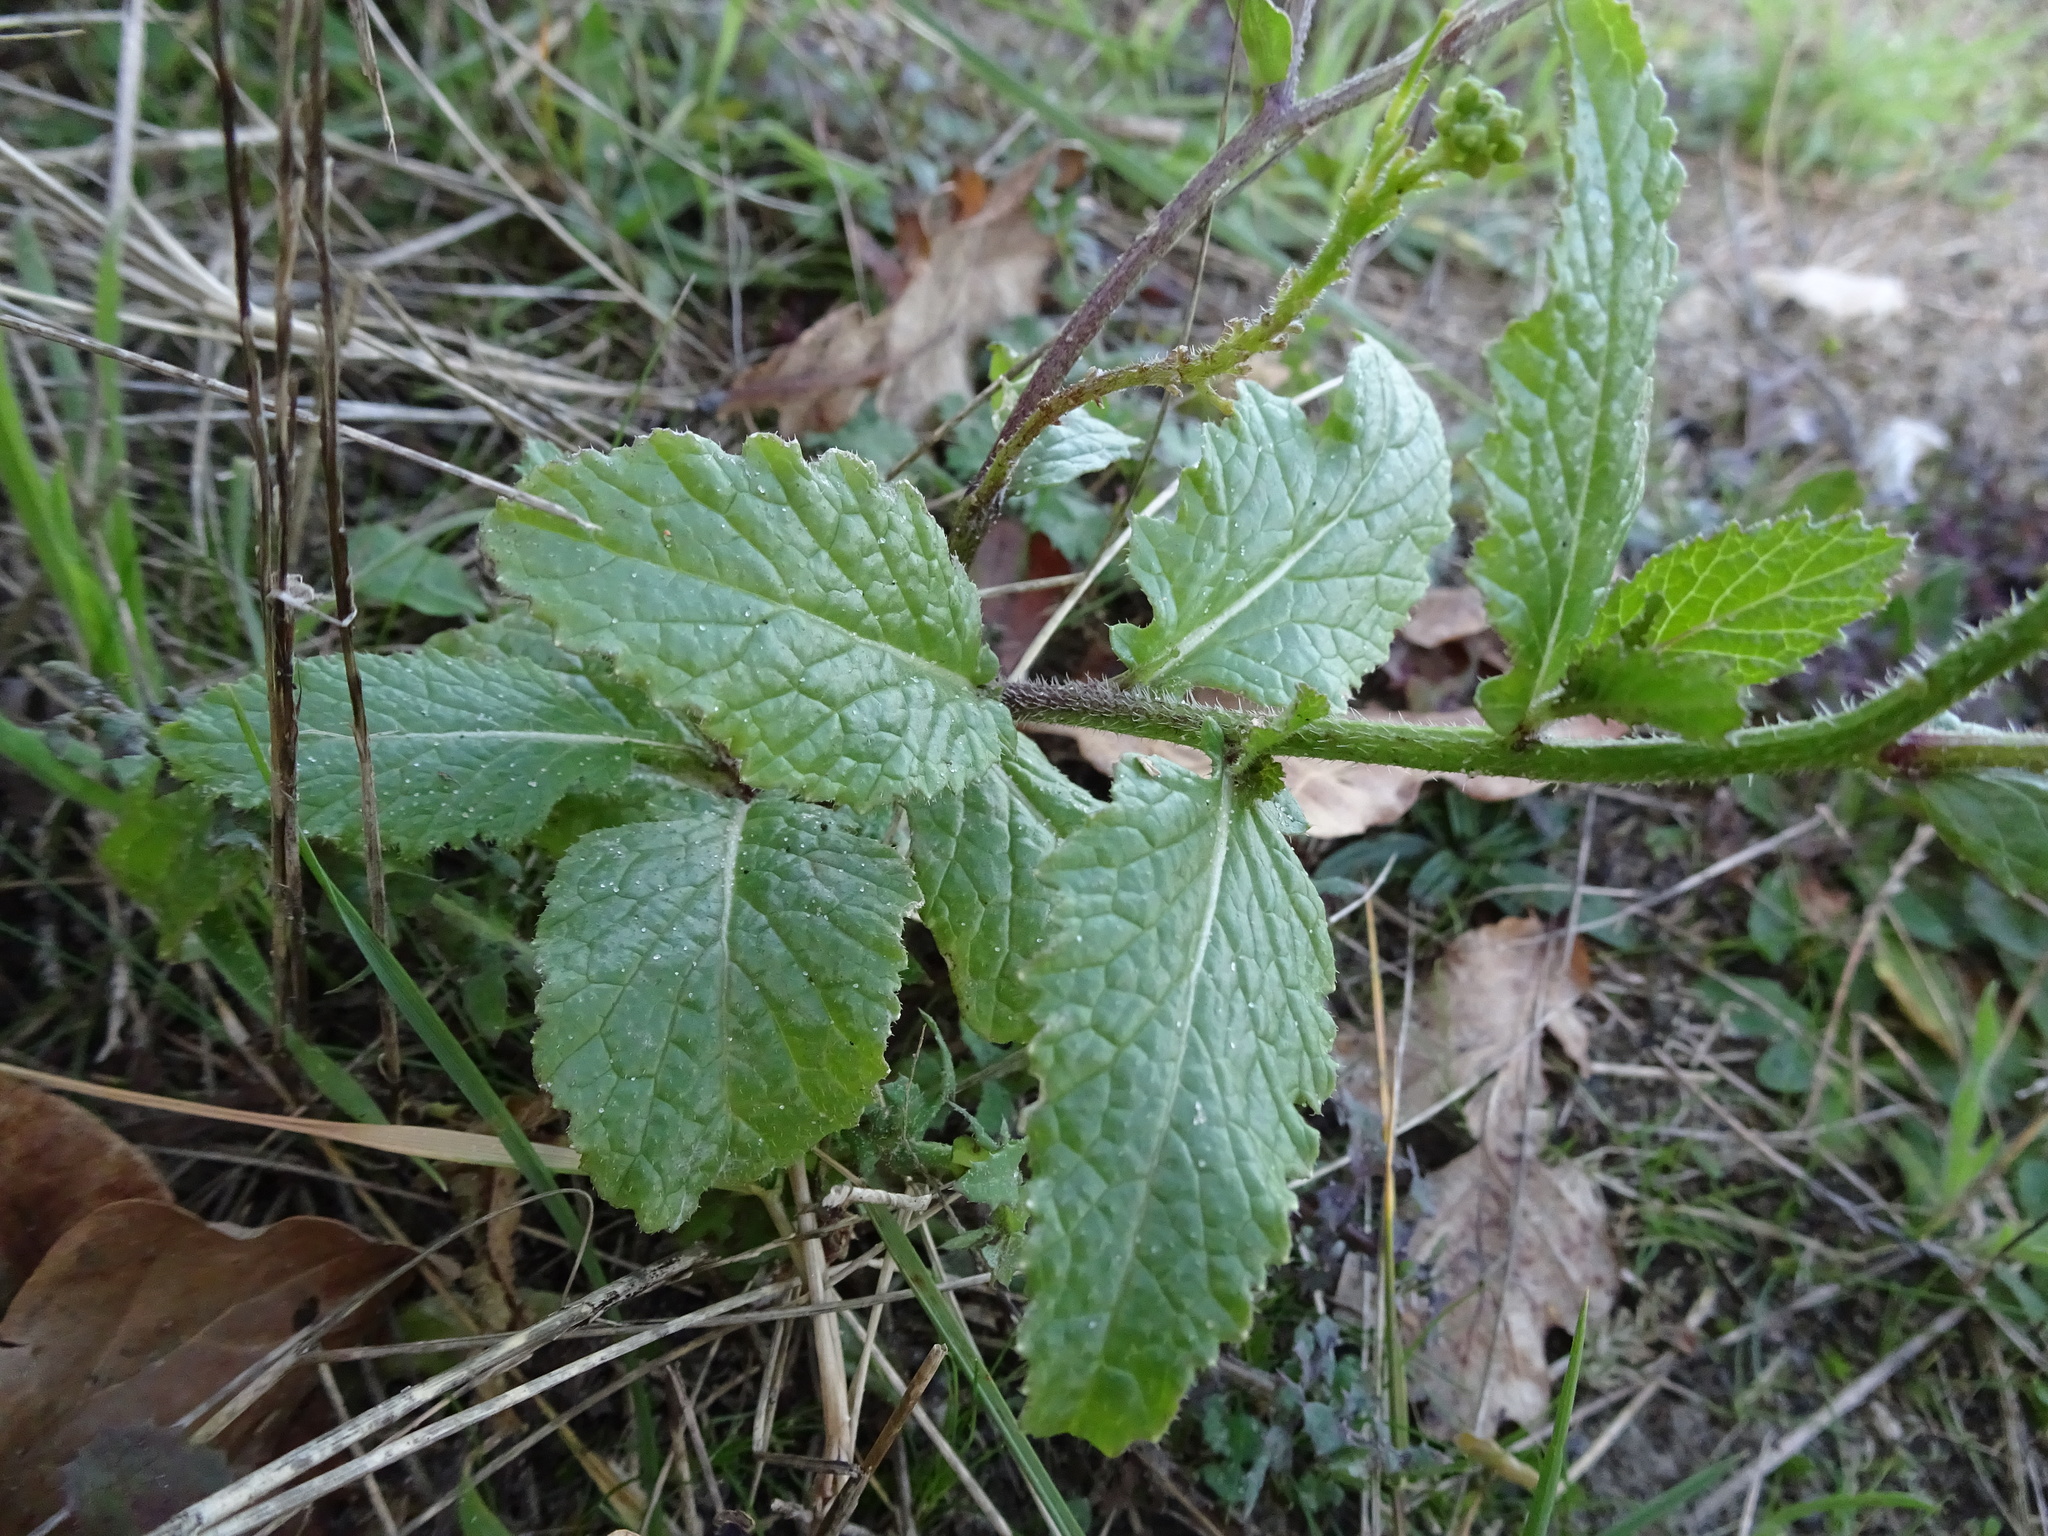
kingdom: Plantae
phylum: Tracheophyta
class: Magnoliopsida
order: Brassicales
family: Brassicaceae
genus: Sinapis
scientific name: Sinapis arvensis
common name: Charlock
